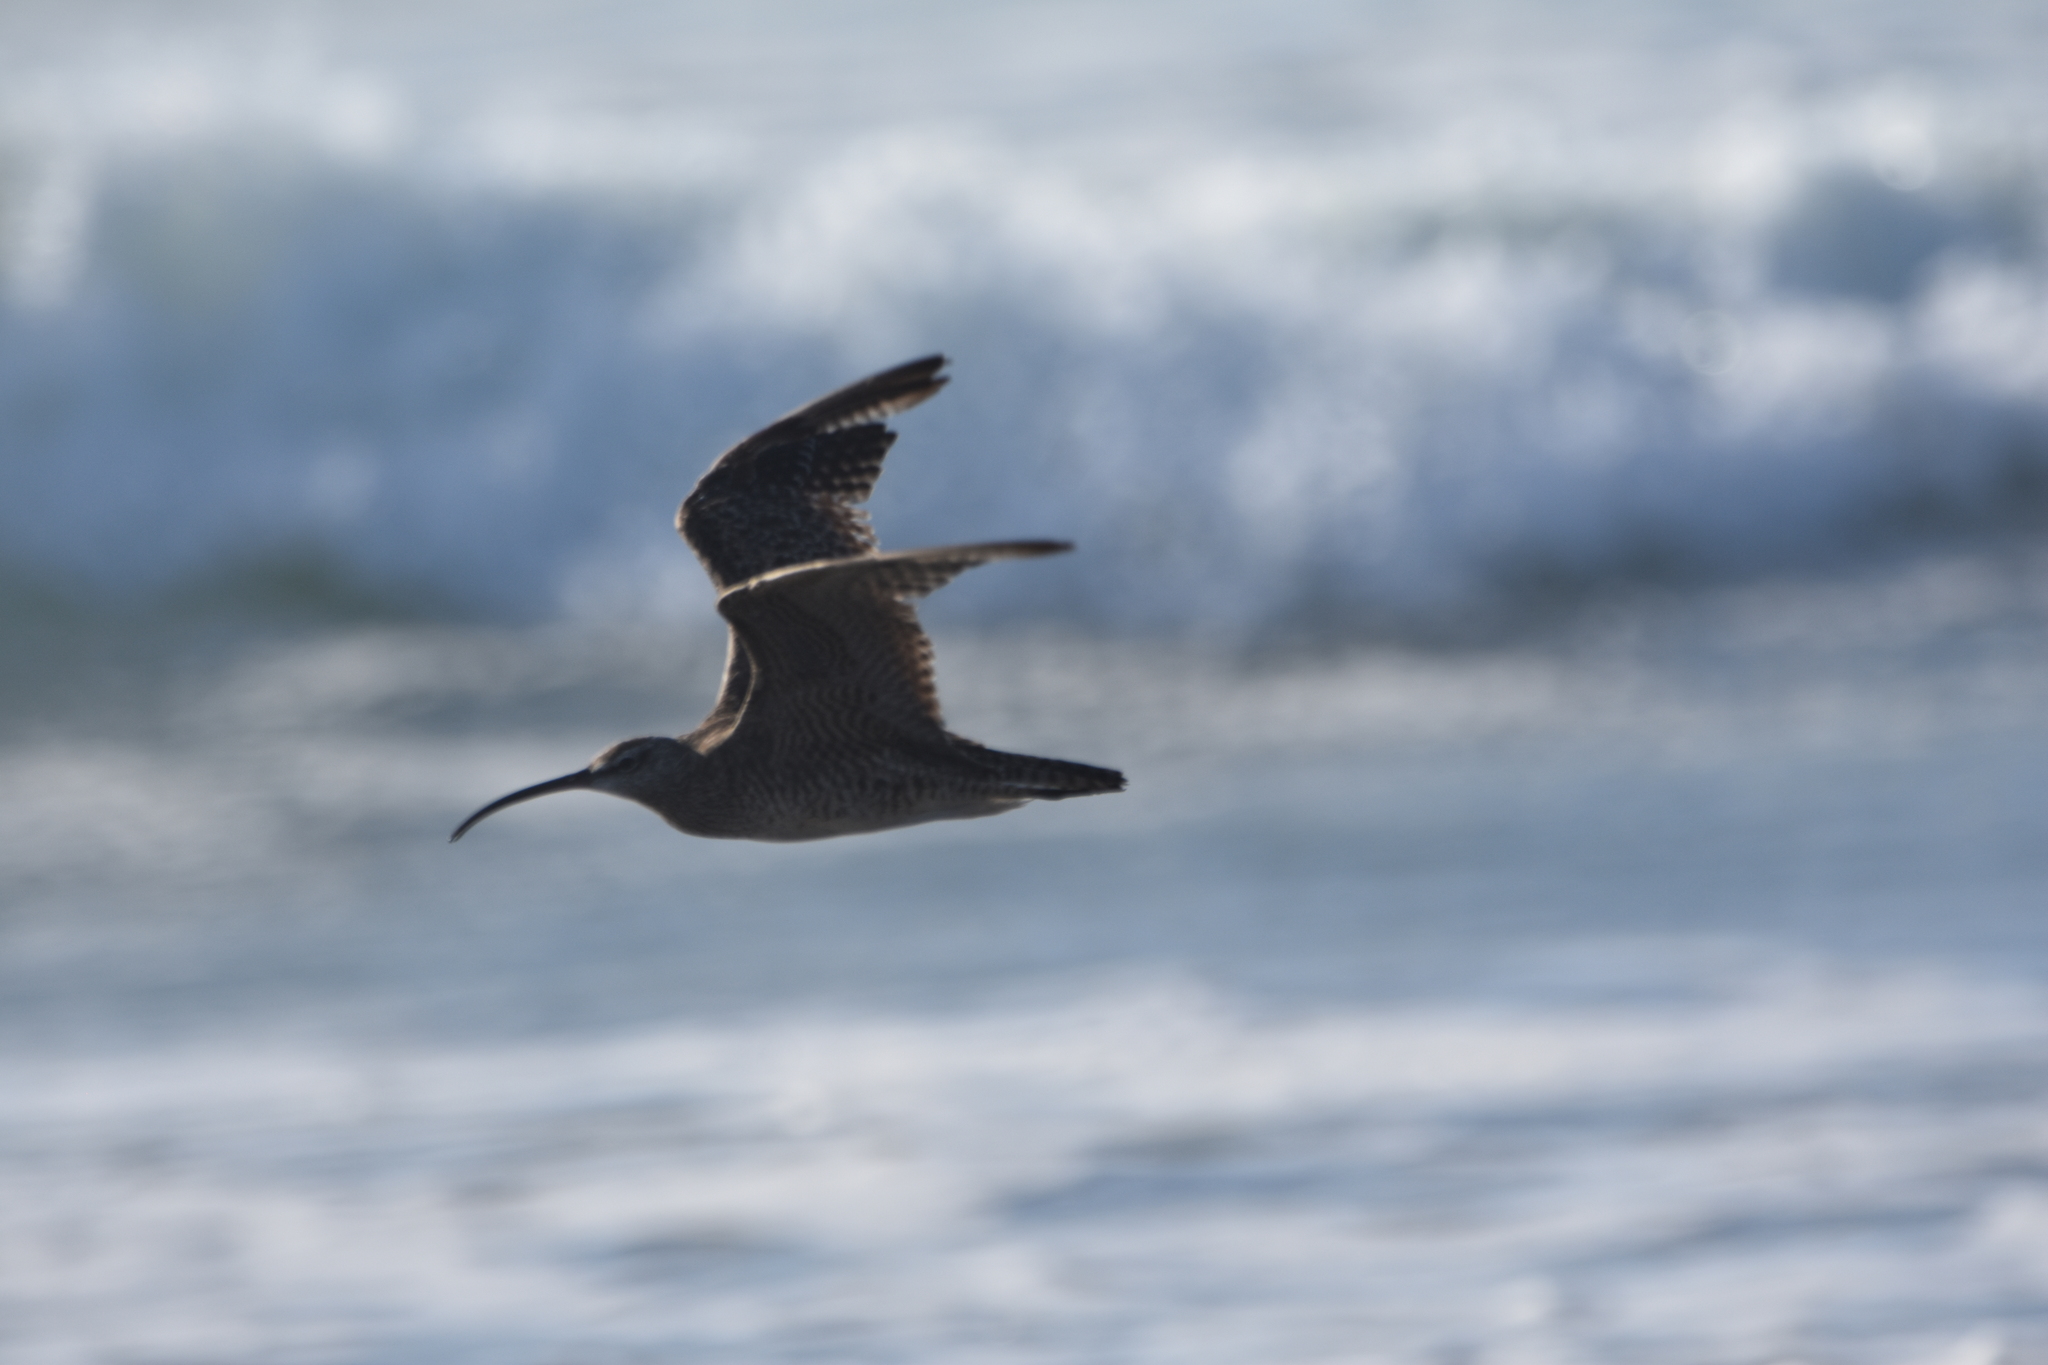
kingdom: Animalia
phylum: Chordata
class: Aves
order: Charadriiformes
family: Scolopacidae
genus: Numenius
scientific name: Numenius hudsonicus
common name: Hudsonian whimbrel
